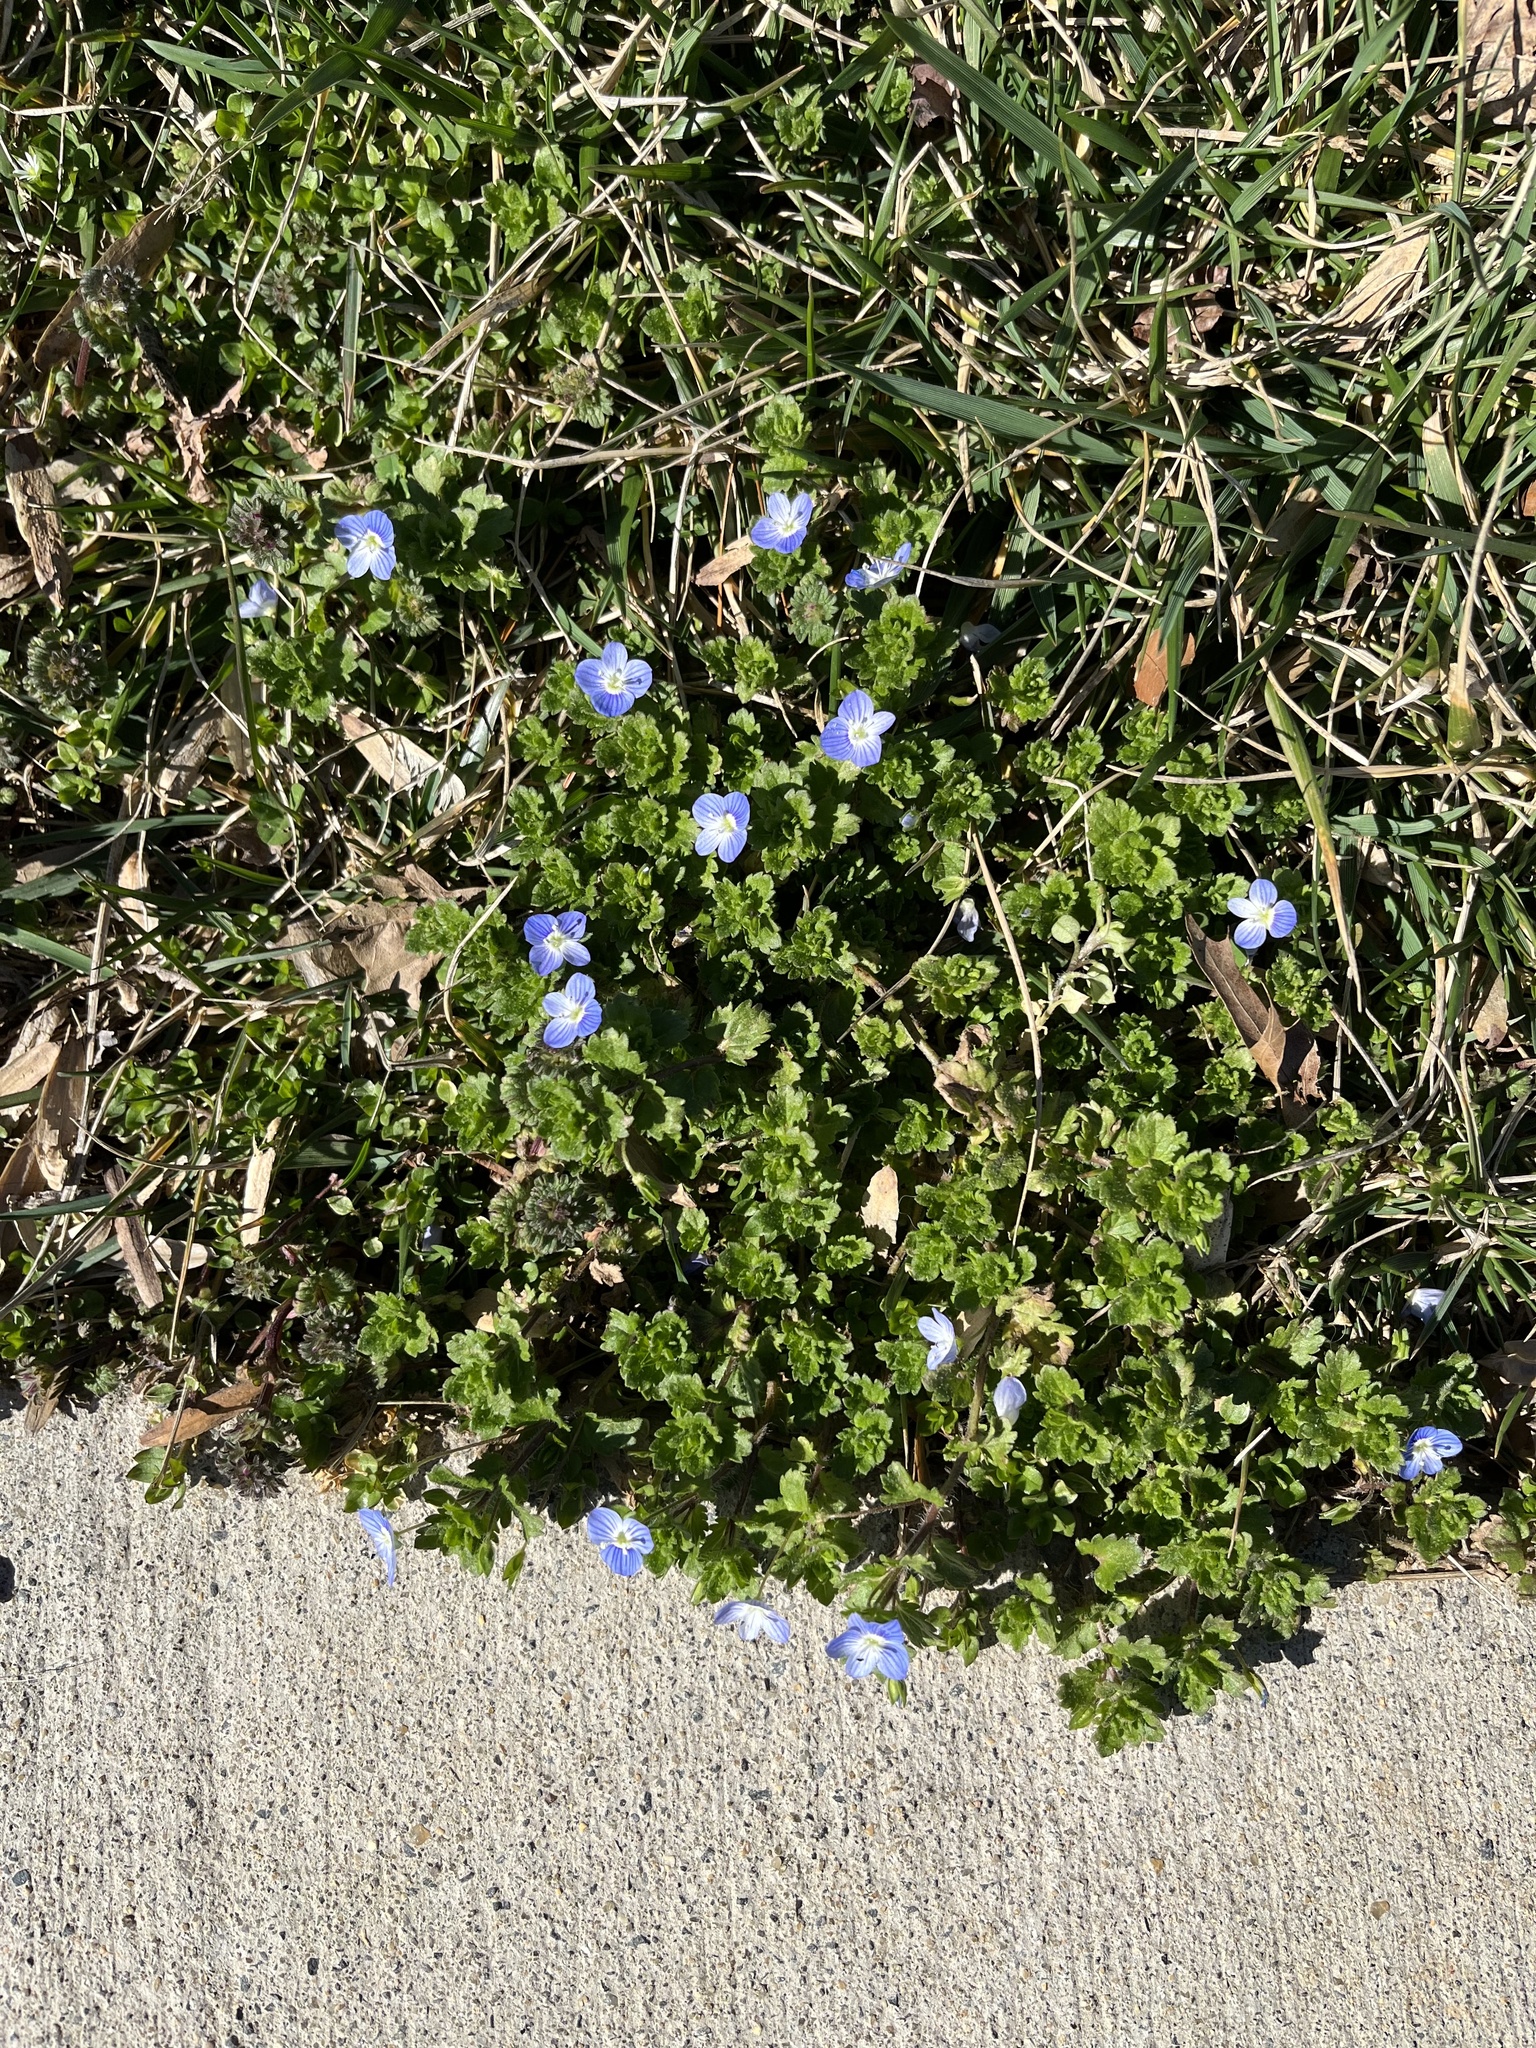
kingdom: Plantae
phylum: Tracheophyta
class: Magnoliopsida
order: Lamiales
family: Plantaginaceae
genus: Veronica
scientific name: Veronica persica
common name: Common field-speedwell
